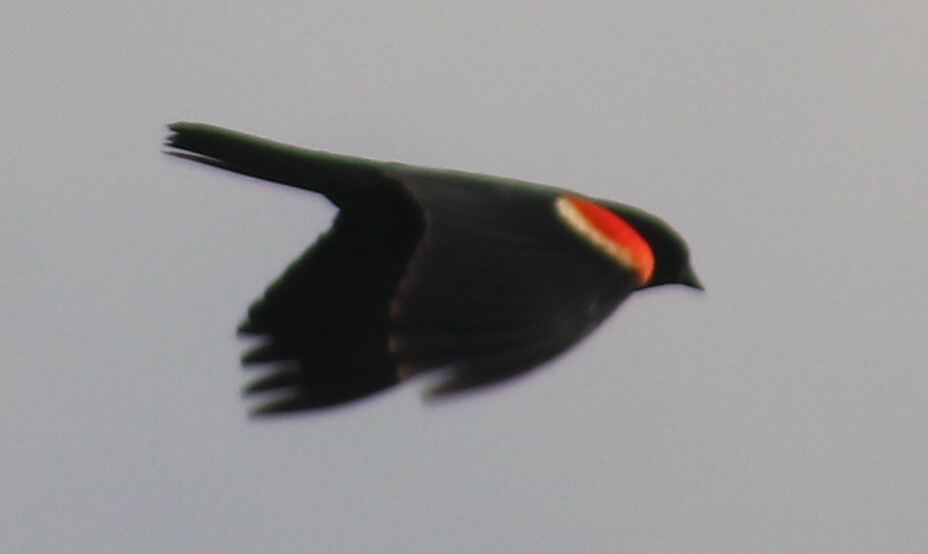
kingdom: Animalia
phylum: Chordata
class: Aves
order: Passeriformes
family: Icteridae
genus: Agelaius
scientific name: Agelaius phoeniceus
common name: Red-winged blackbird
